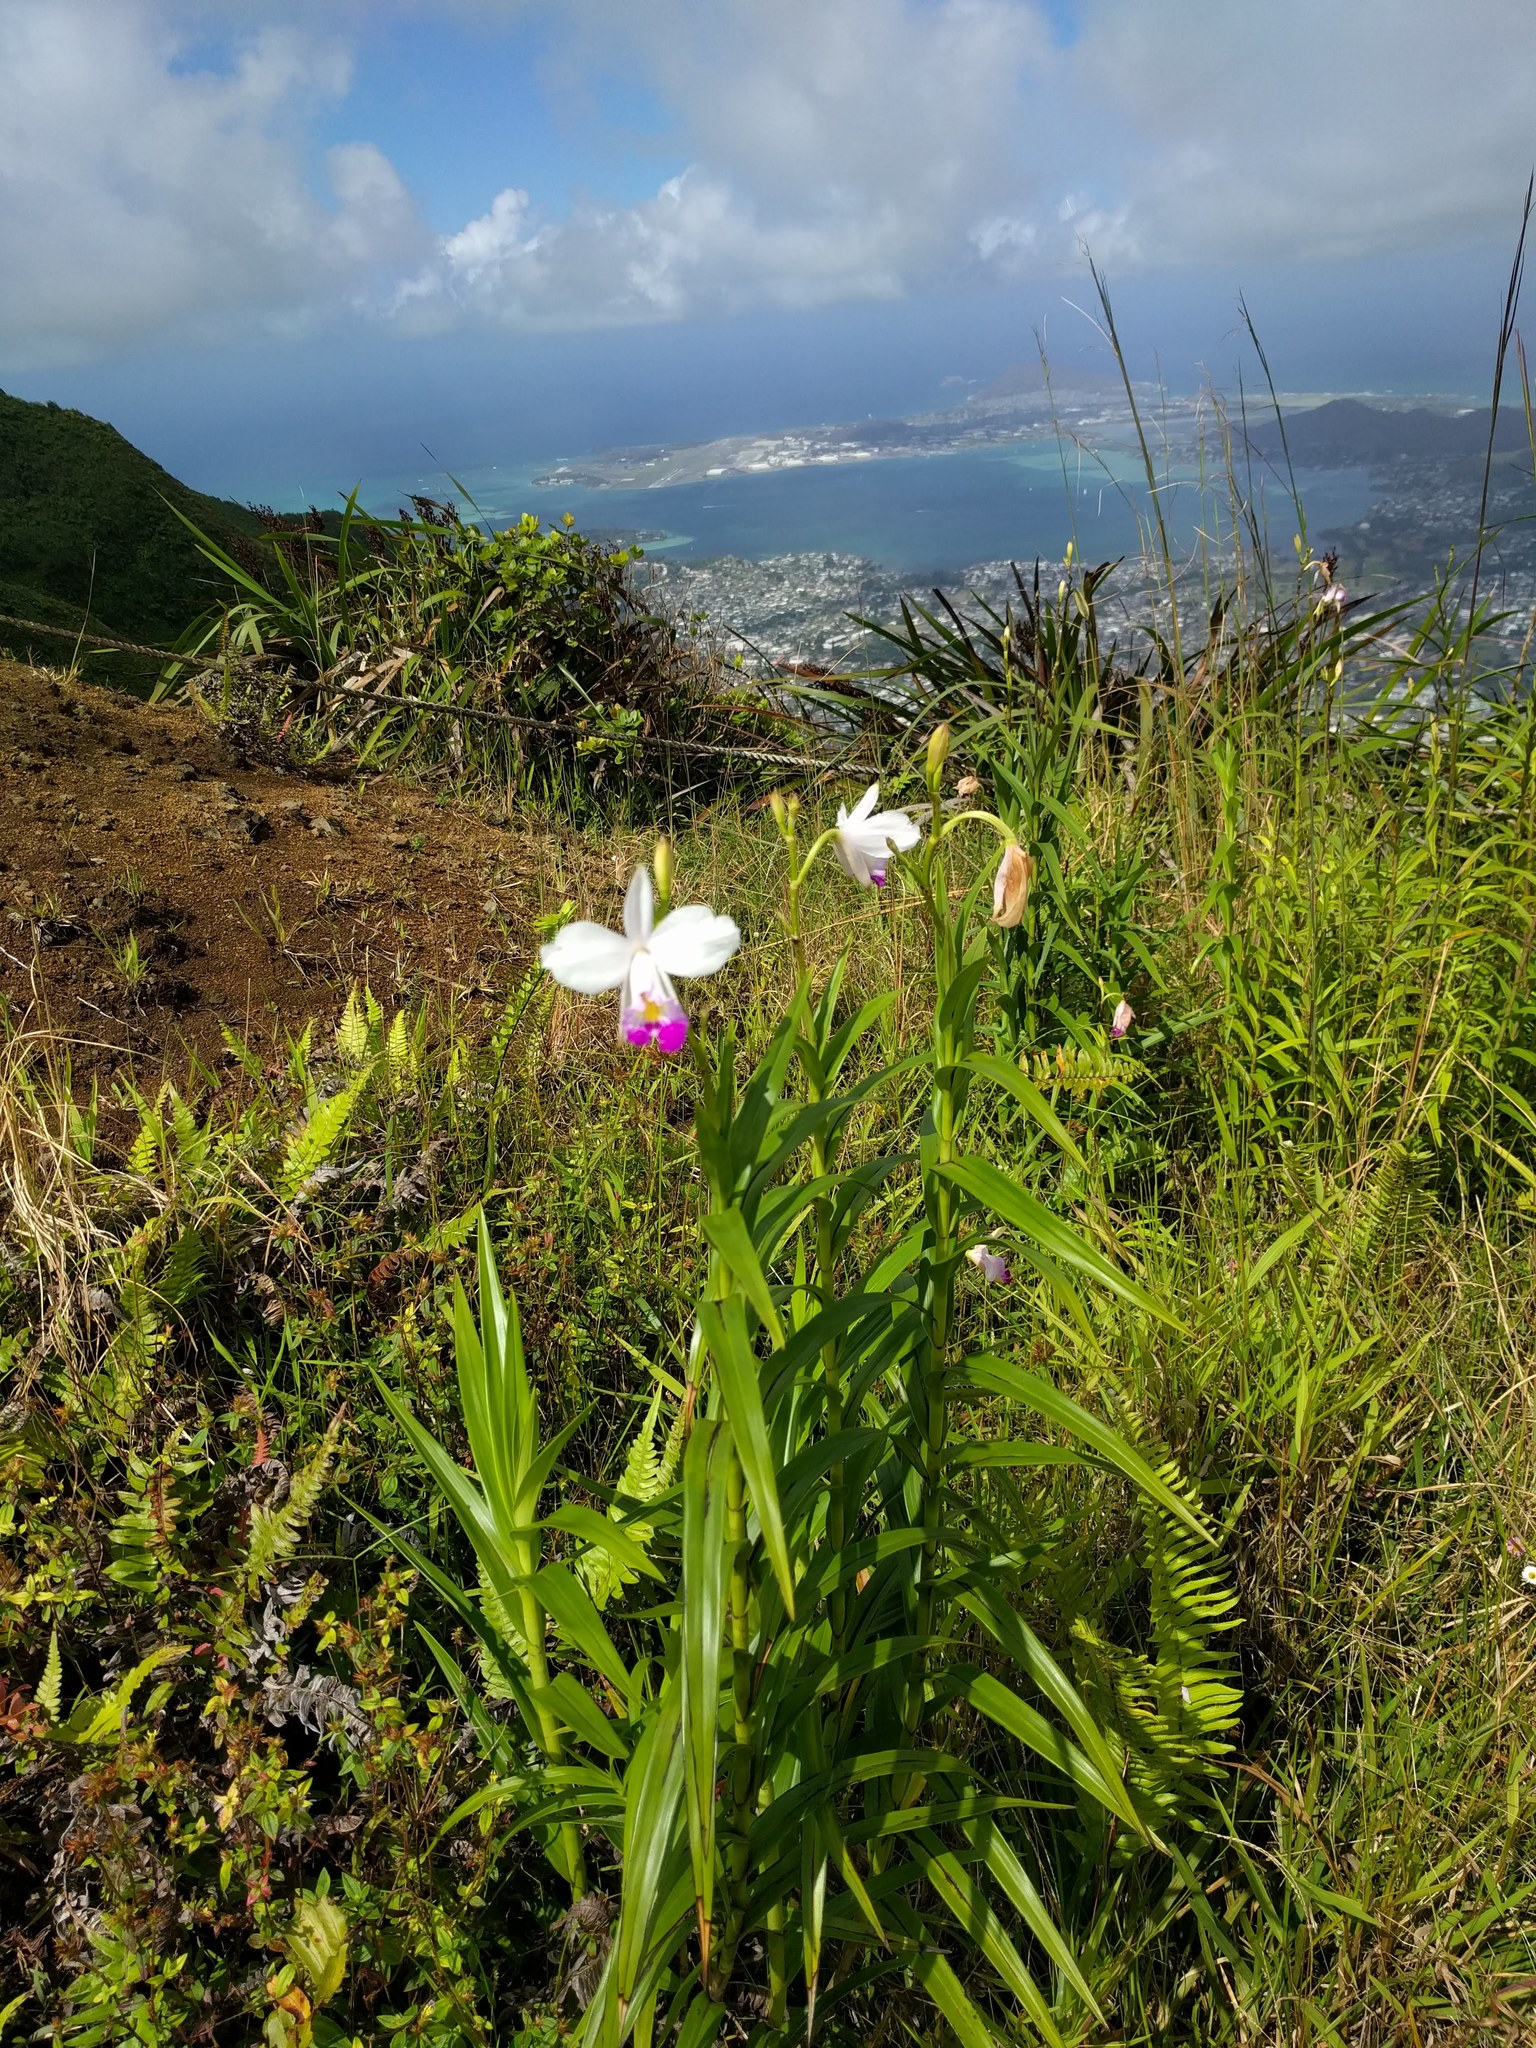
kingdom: Plantae
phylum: Tracheophyta
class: Liliopsida
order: Asparagales
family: Orchidaceae
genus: Arundina
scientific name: Arundina graminifolia
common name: Bamboo orchid
